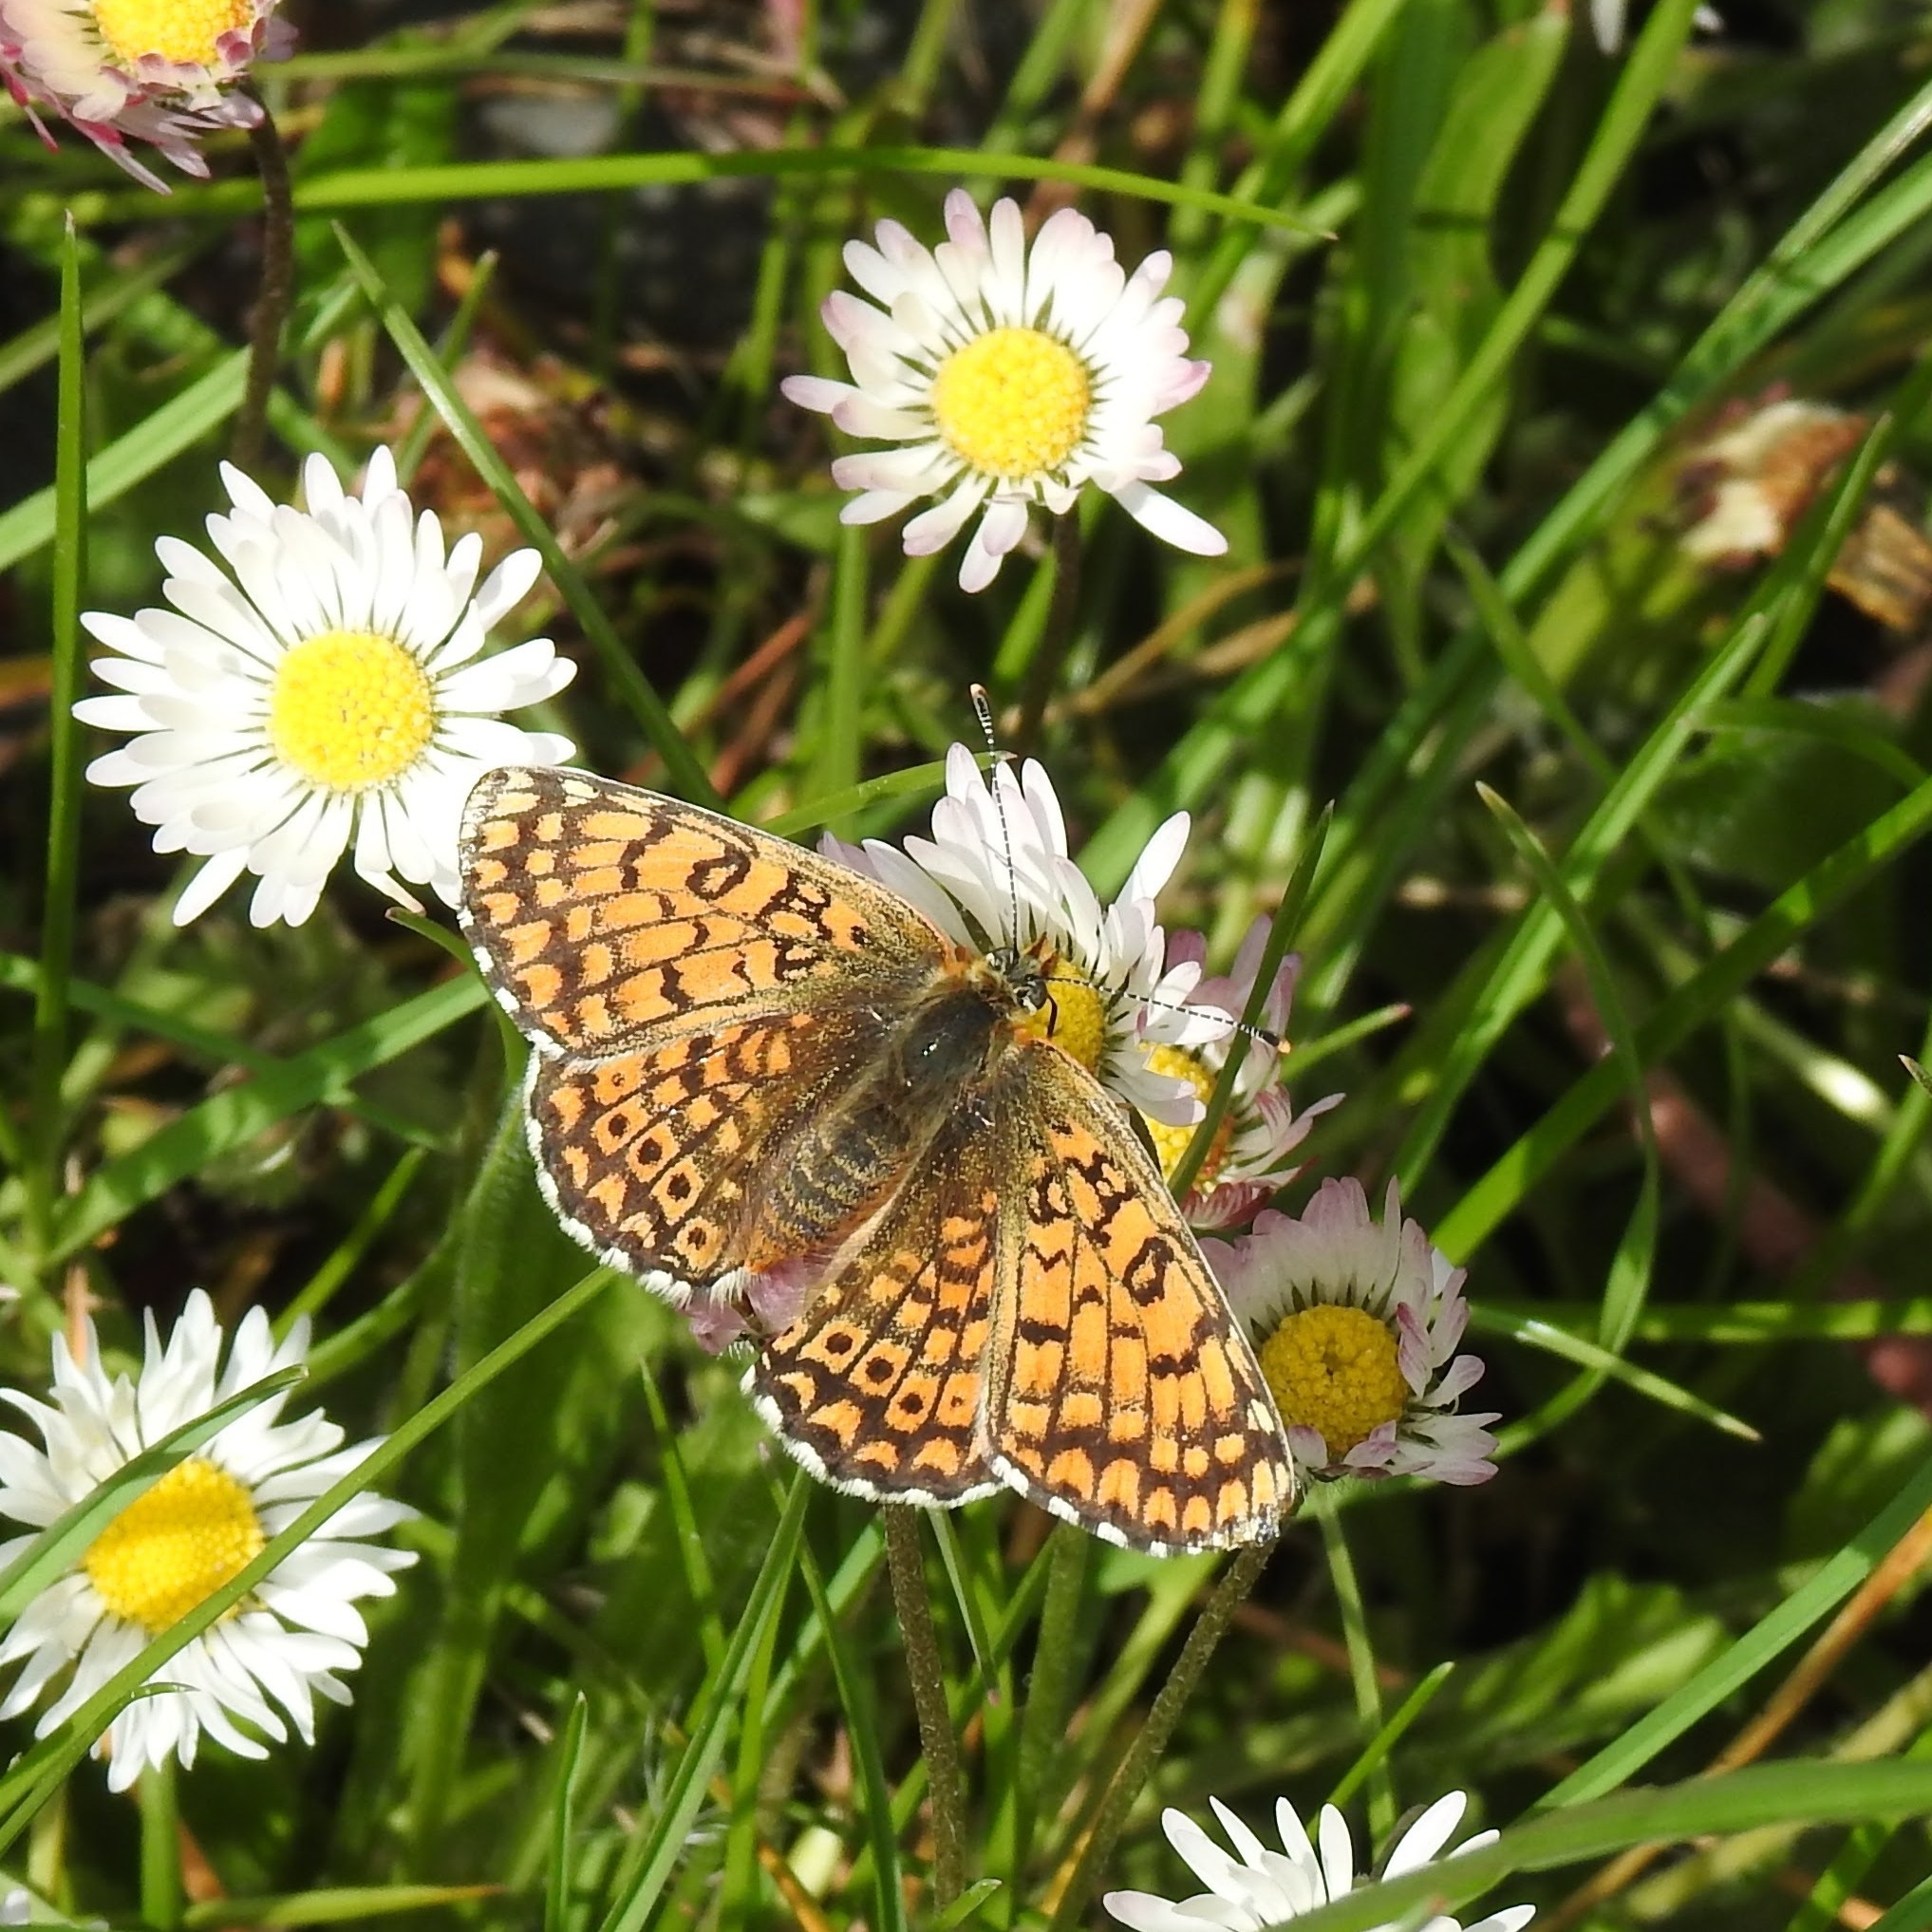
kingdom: Animalia
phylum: Arthropoda
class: Insecta
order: Lepidoptera
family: Nymphalidae
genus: Melitaea
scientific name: Melitaea cinxia
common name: Glanville fritillary
